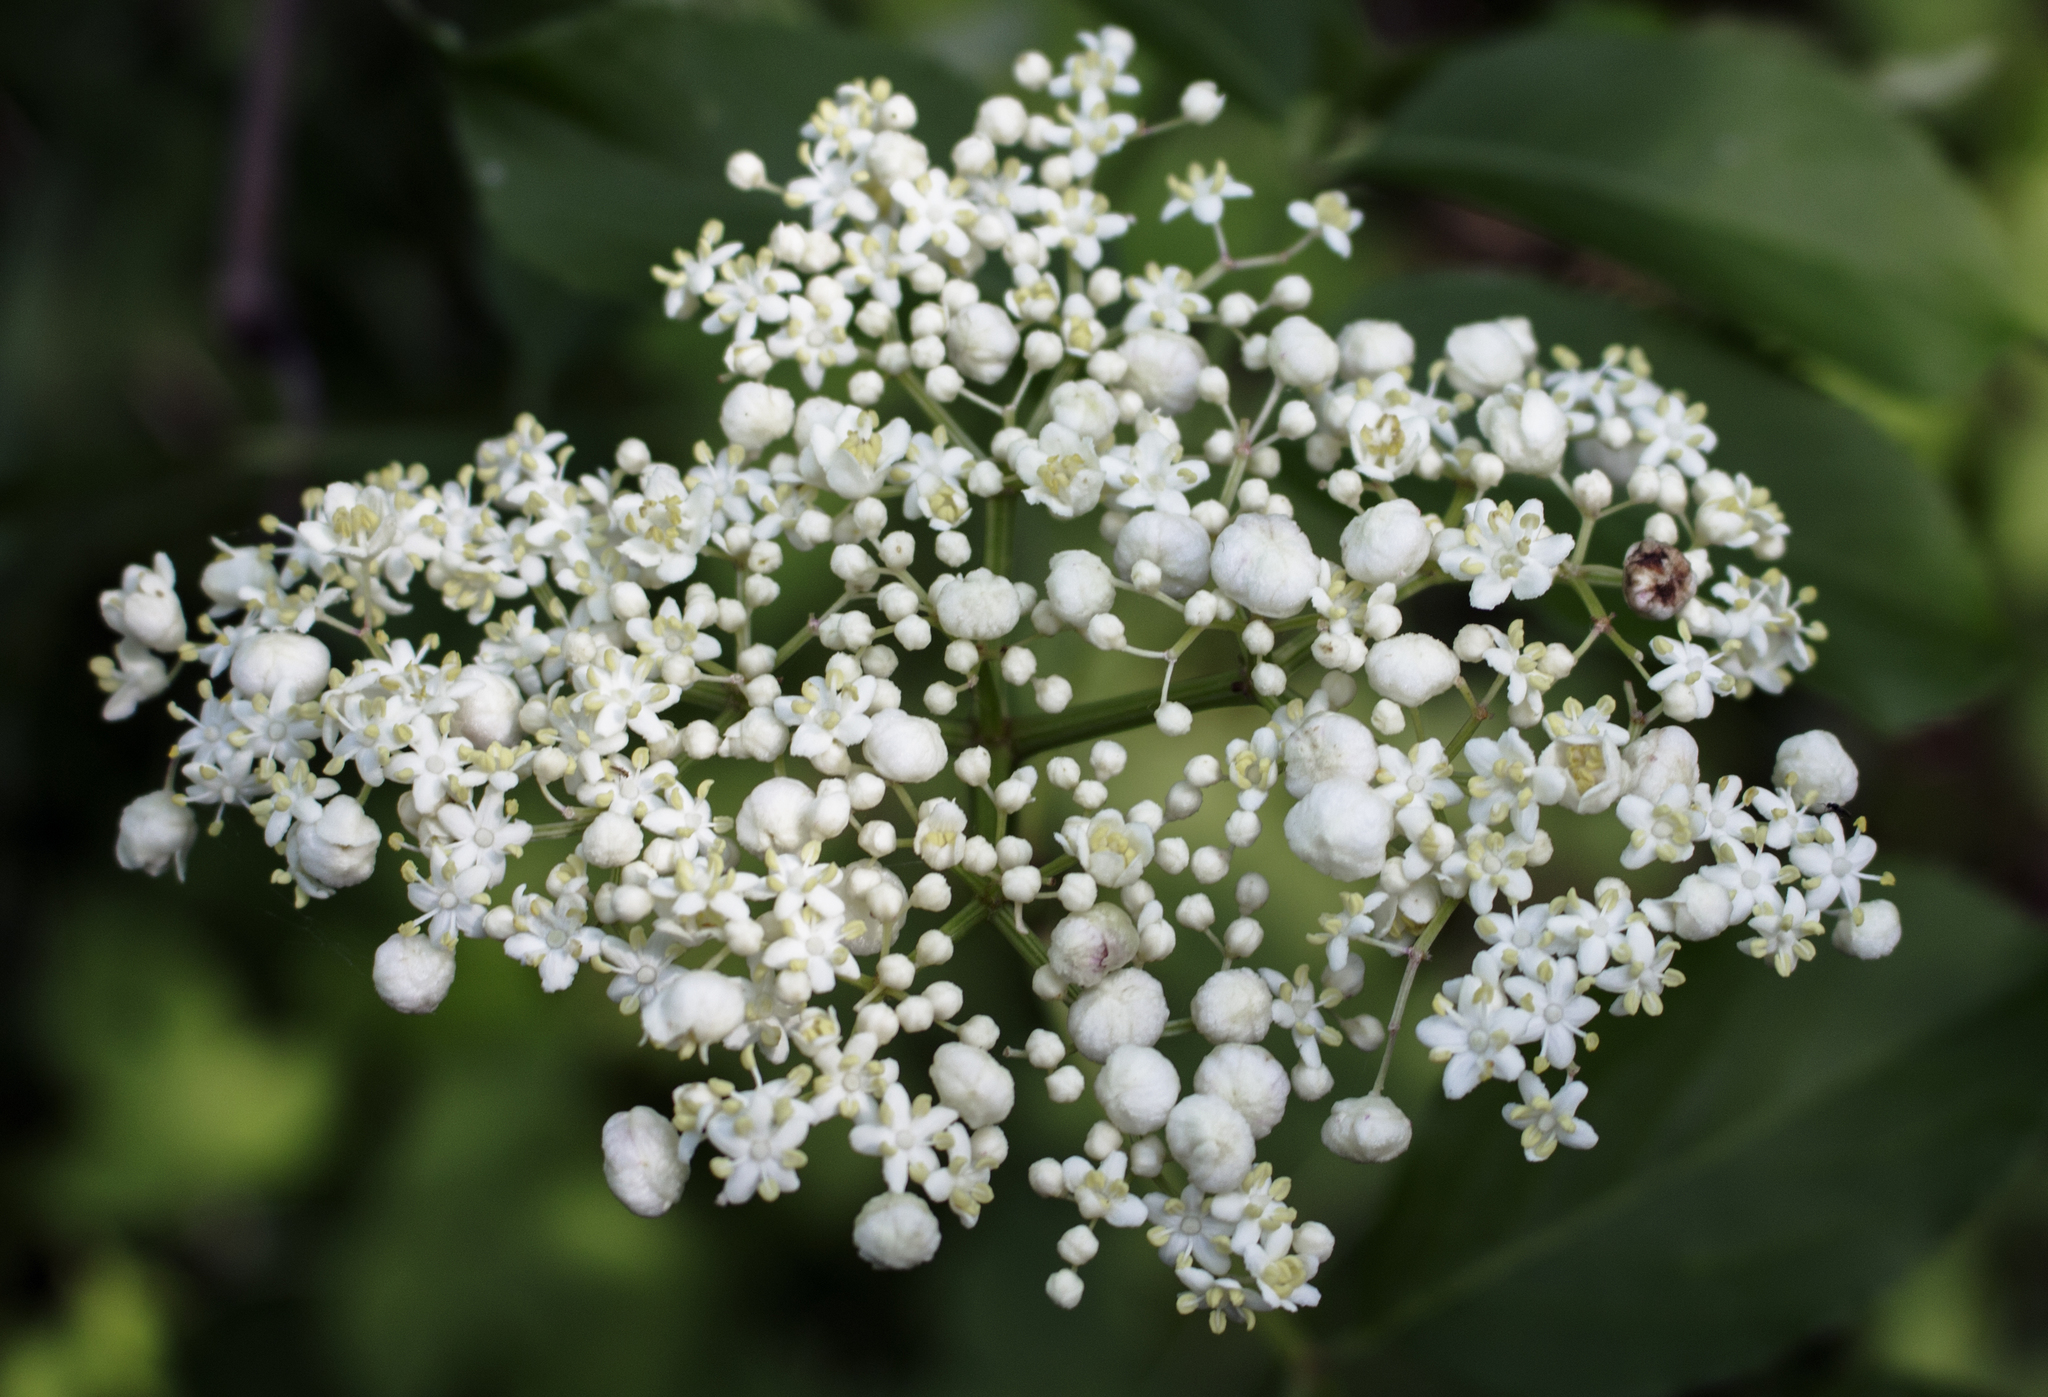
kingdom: Plantae
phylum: Tracheophyta
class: Magnoliopsida
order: Dipsacales
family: Viburnaceae
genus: Sambucus
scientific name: Sambucus canadensis
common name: American elder
